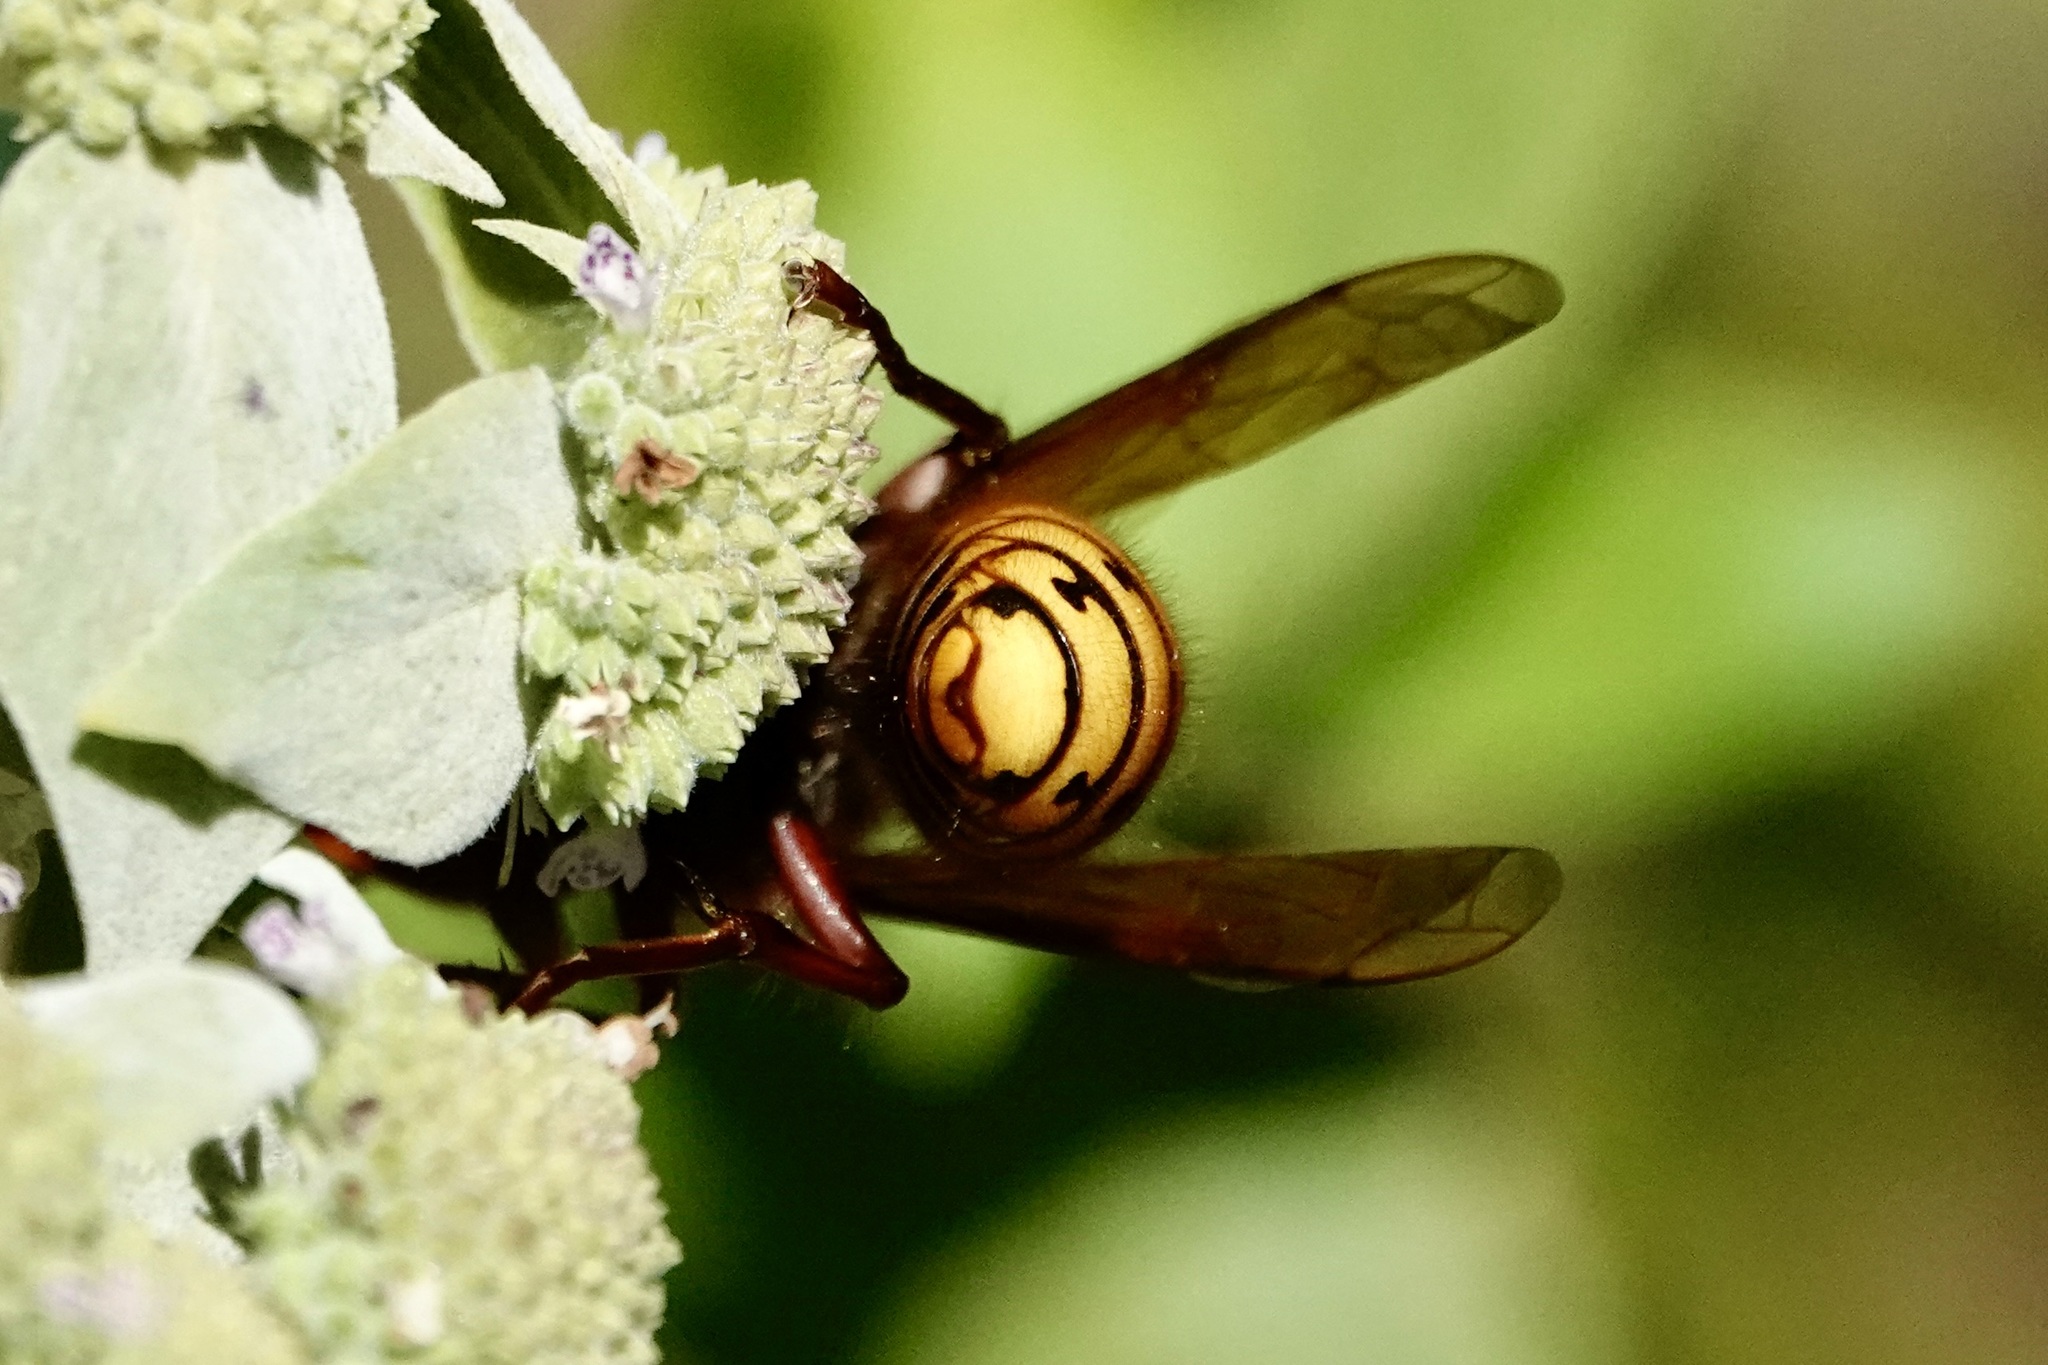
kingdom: Animalia
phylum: Arthropoda
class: Insecta
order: Hymenoptera
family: Vespidae
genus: Vespa
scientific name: Vespa crabro
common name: Hornet
